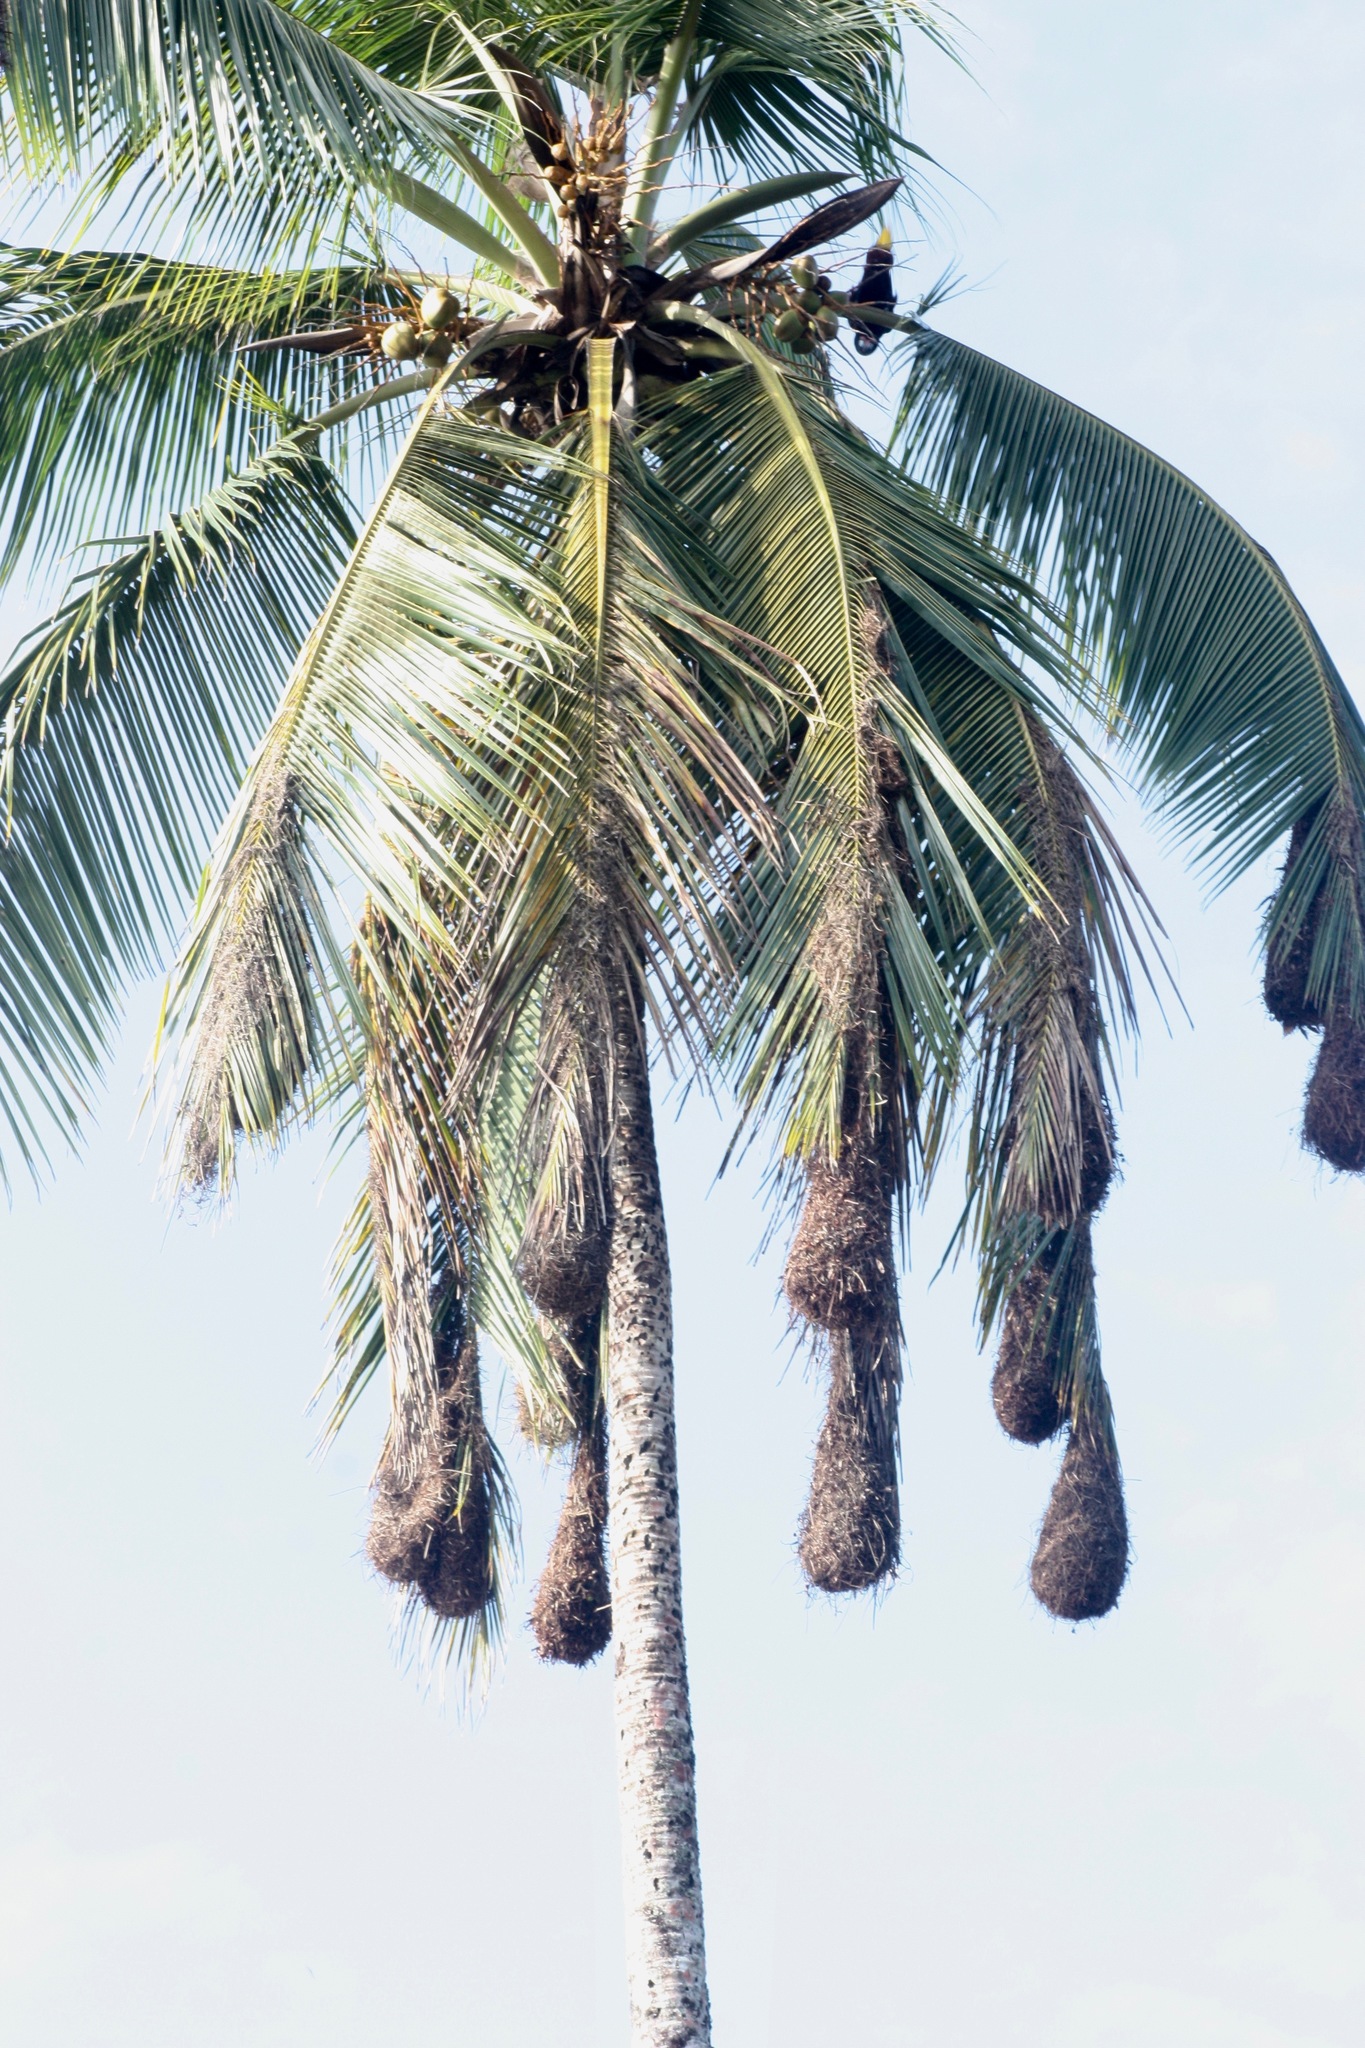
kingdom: Animalia
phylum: Chordata
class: Aves
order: Passeriformes
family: Icteridae
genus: Psarocolius
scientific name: Psarocolius montezuma
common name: Montezuma oropendola
